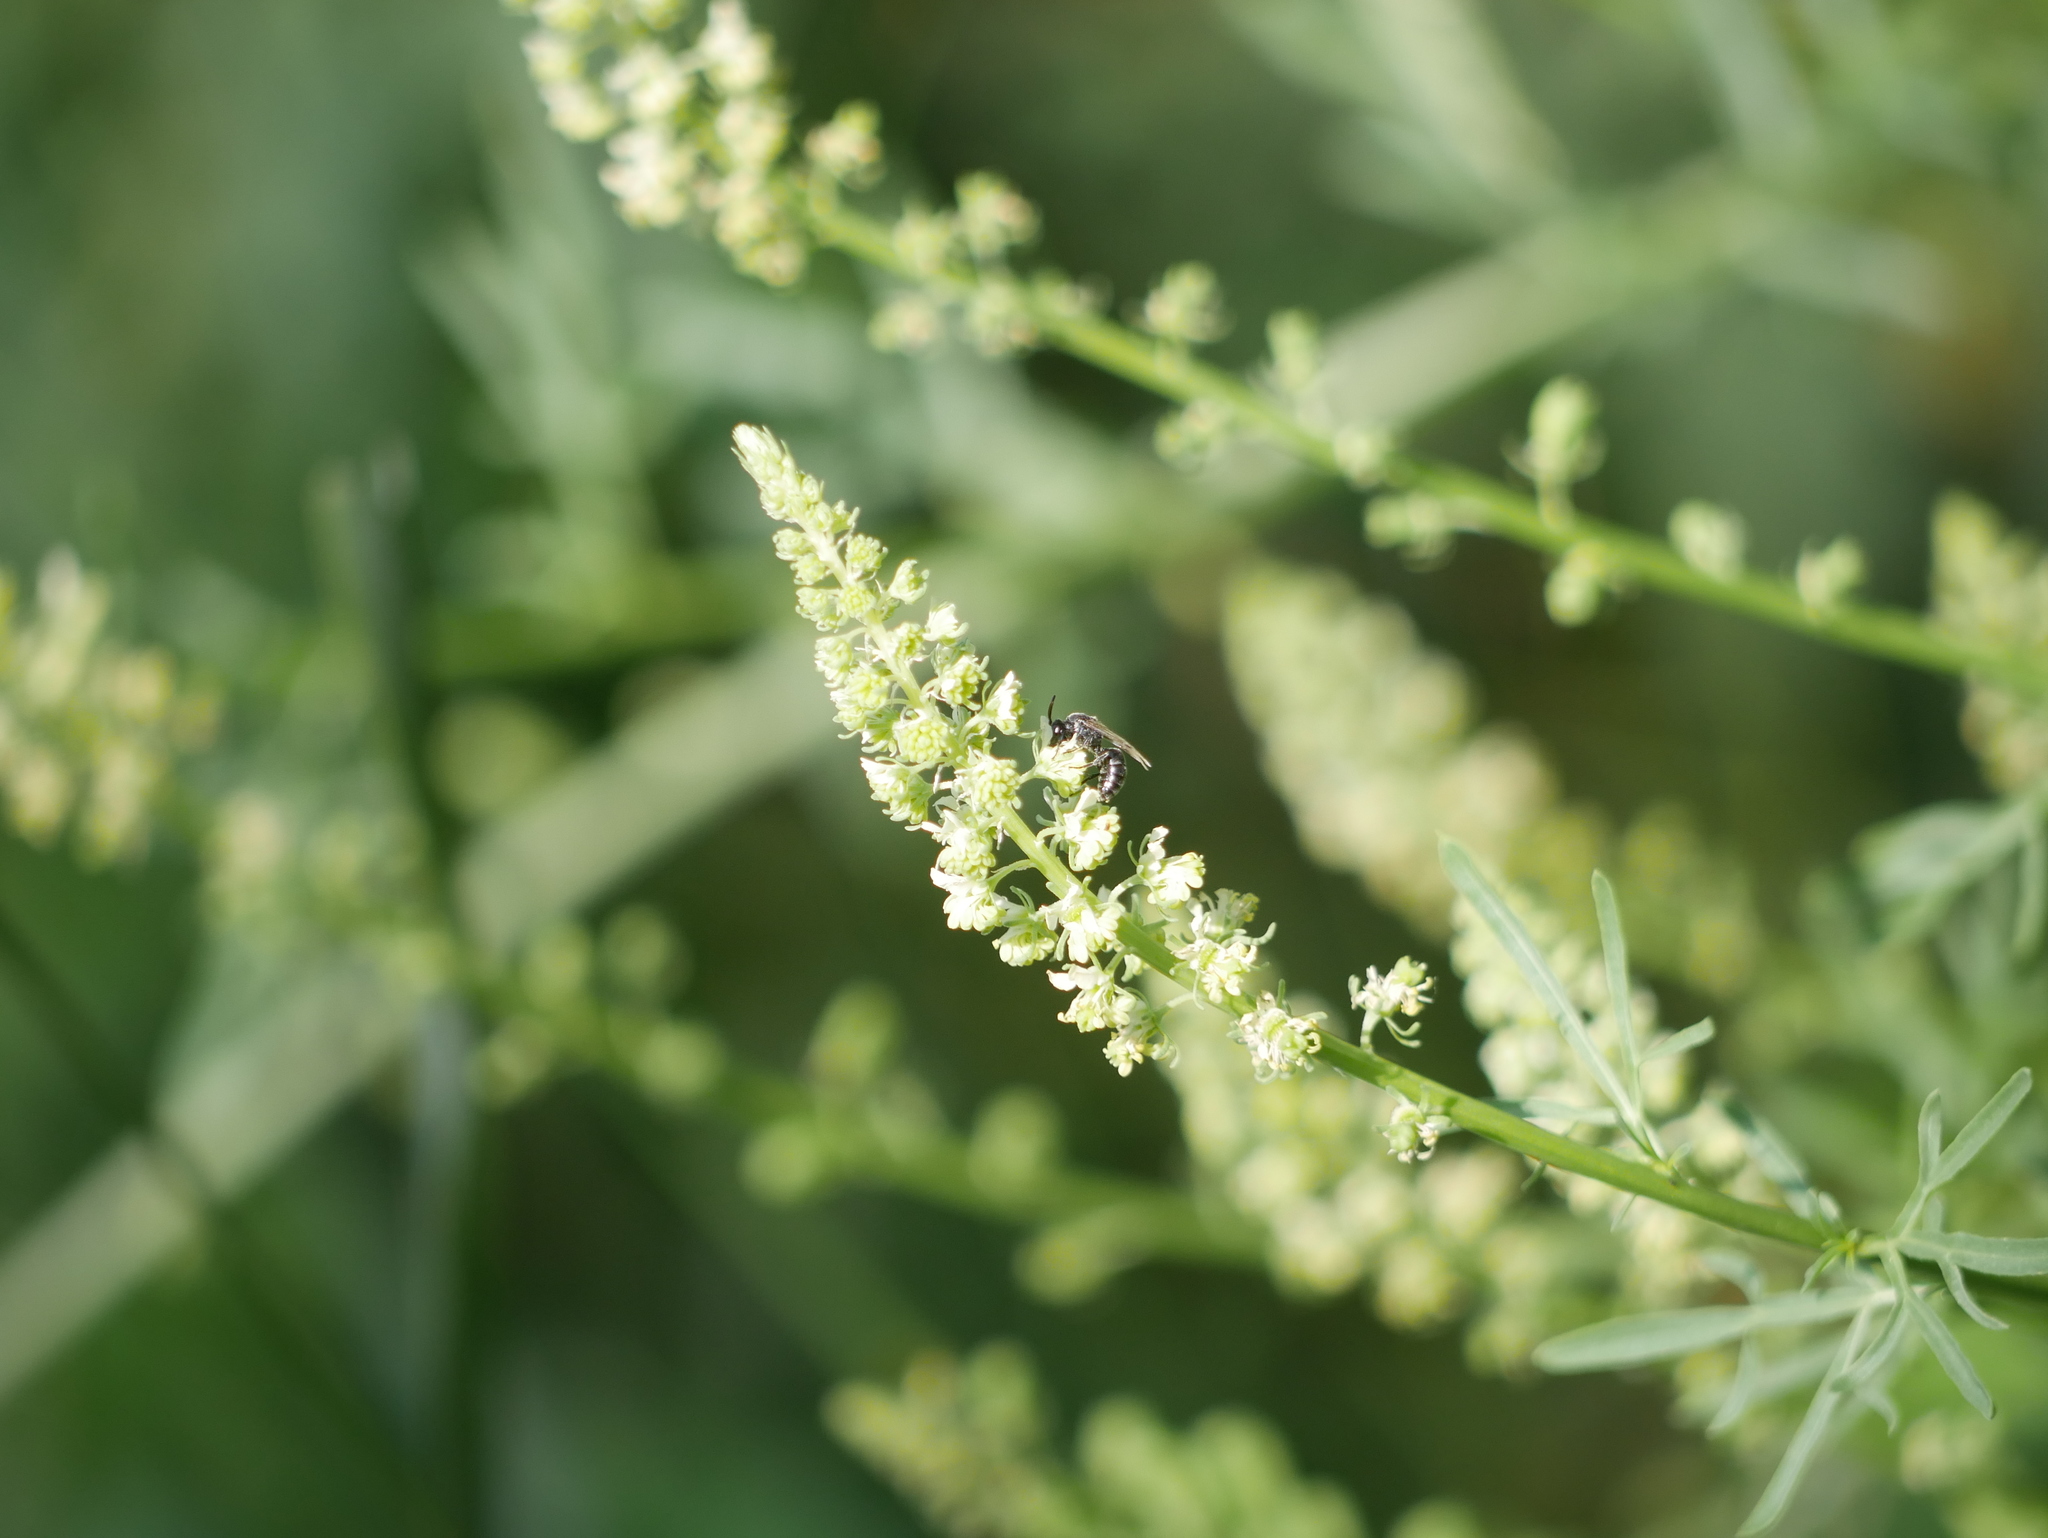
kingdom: Plantae
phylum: Tracheophyta
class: Magnoliopsida
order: Brassicales
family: Resedaceae
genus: Reseda
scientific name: Reseda lutea
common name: Wild mignonette
